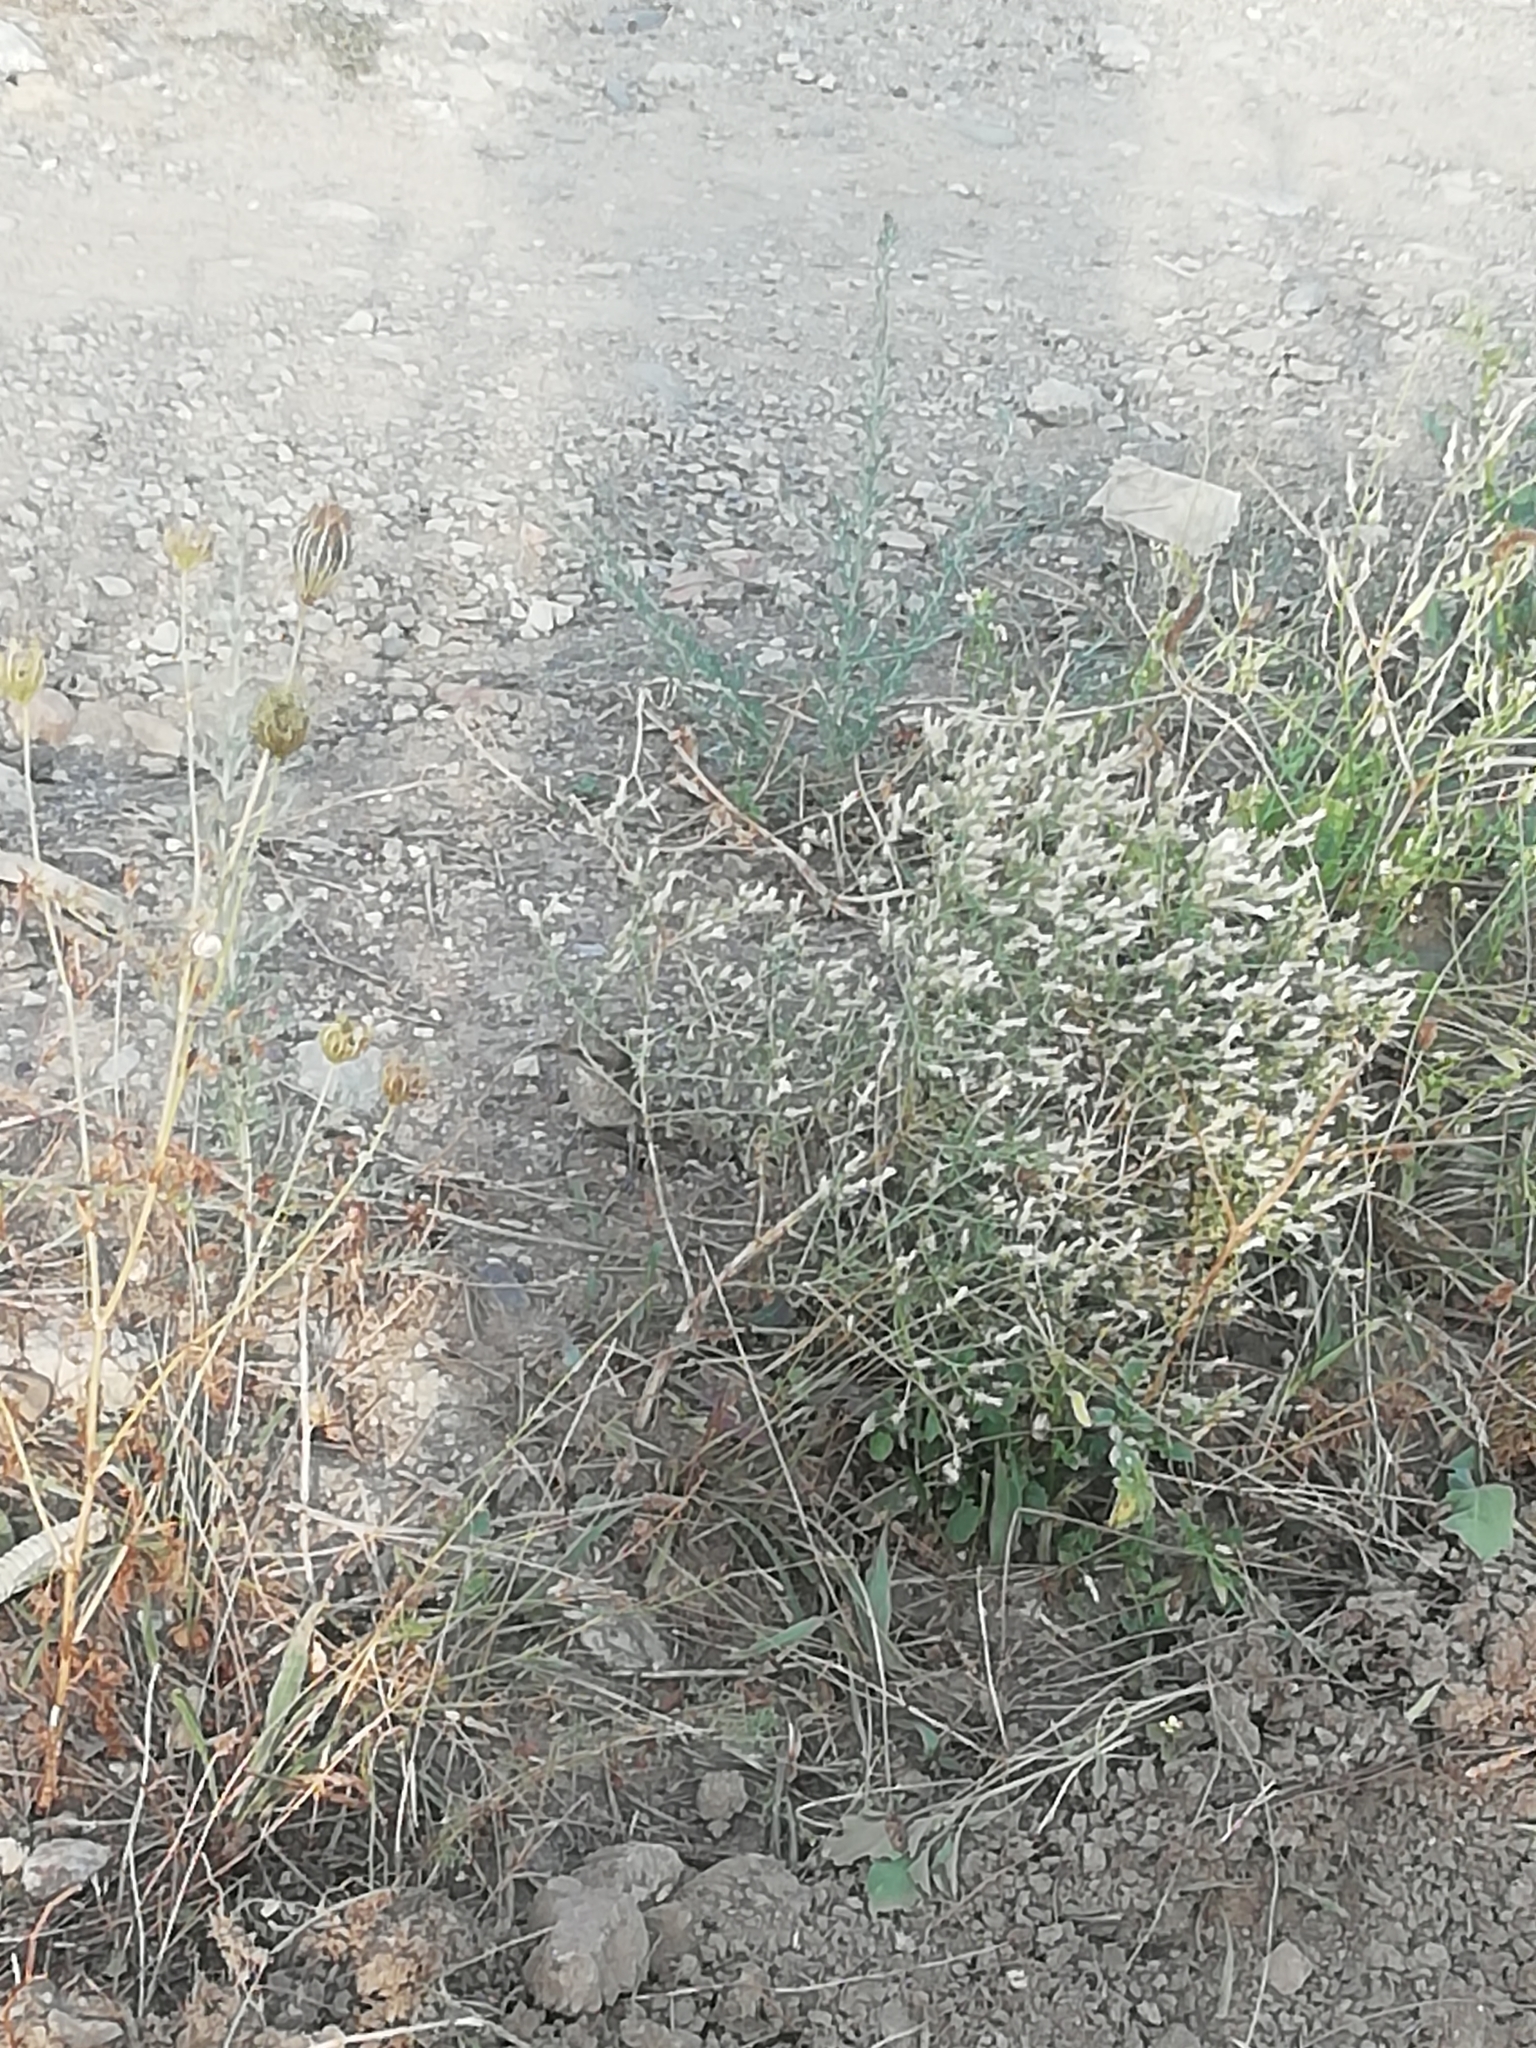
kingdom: Animalia
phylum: Chordata
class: Aves
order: Passeriformes
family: Laniidae
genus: Lanius
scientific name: Lanius collurio
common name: Red-backed shrike
